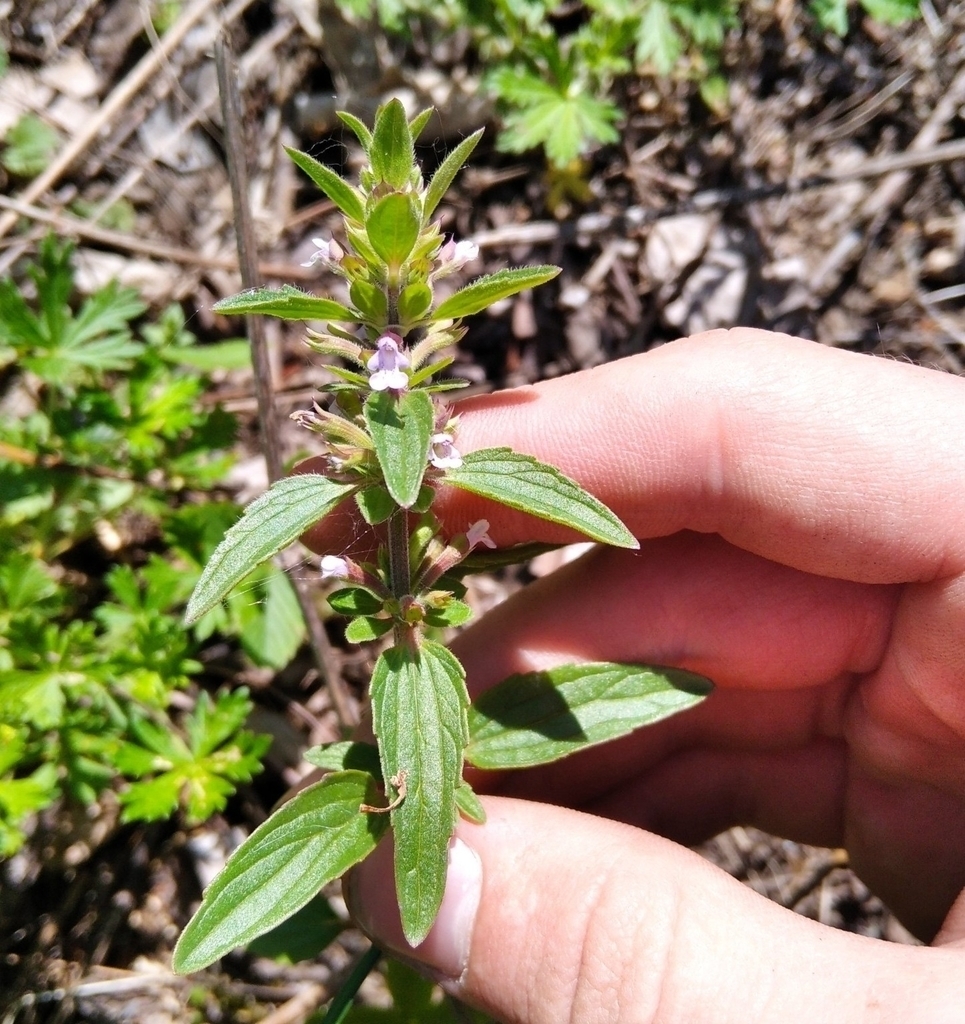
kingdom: Plantae
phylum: Tracheophyta
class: Magnoliopsida
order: Lamiales
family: Lamiaceae
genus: Dracocephalum
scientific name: Dracocephalum thymiflorum
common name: Thymeleaf dragonhead
